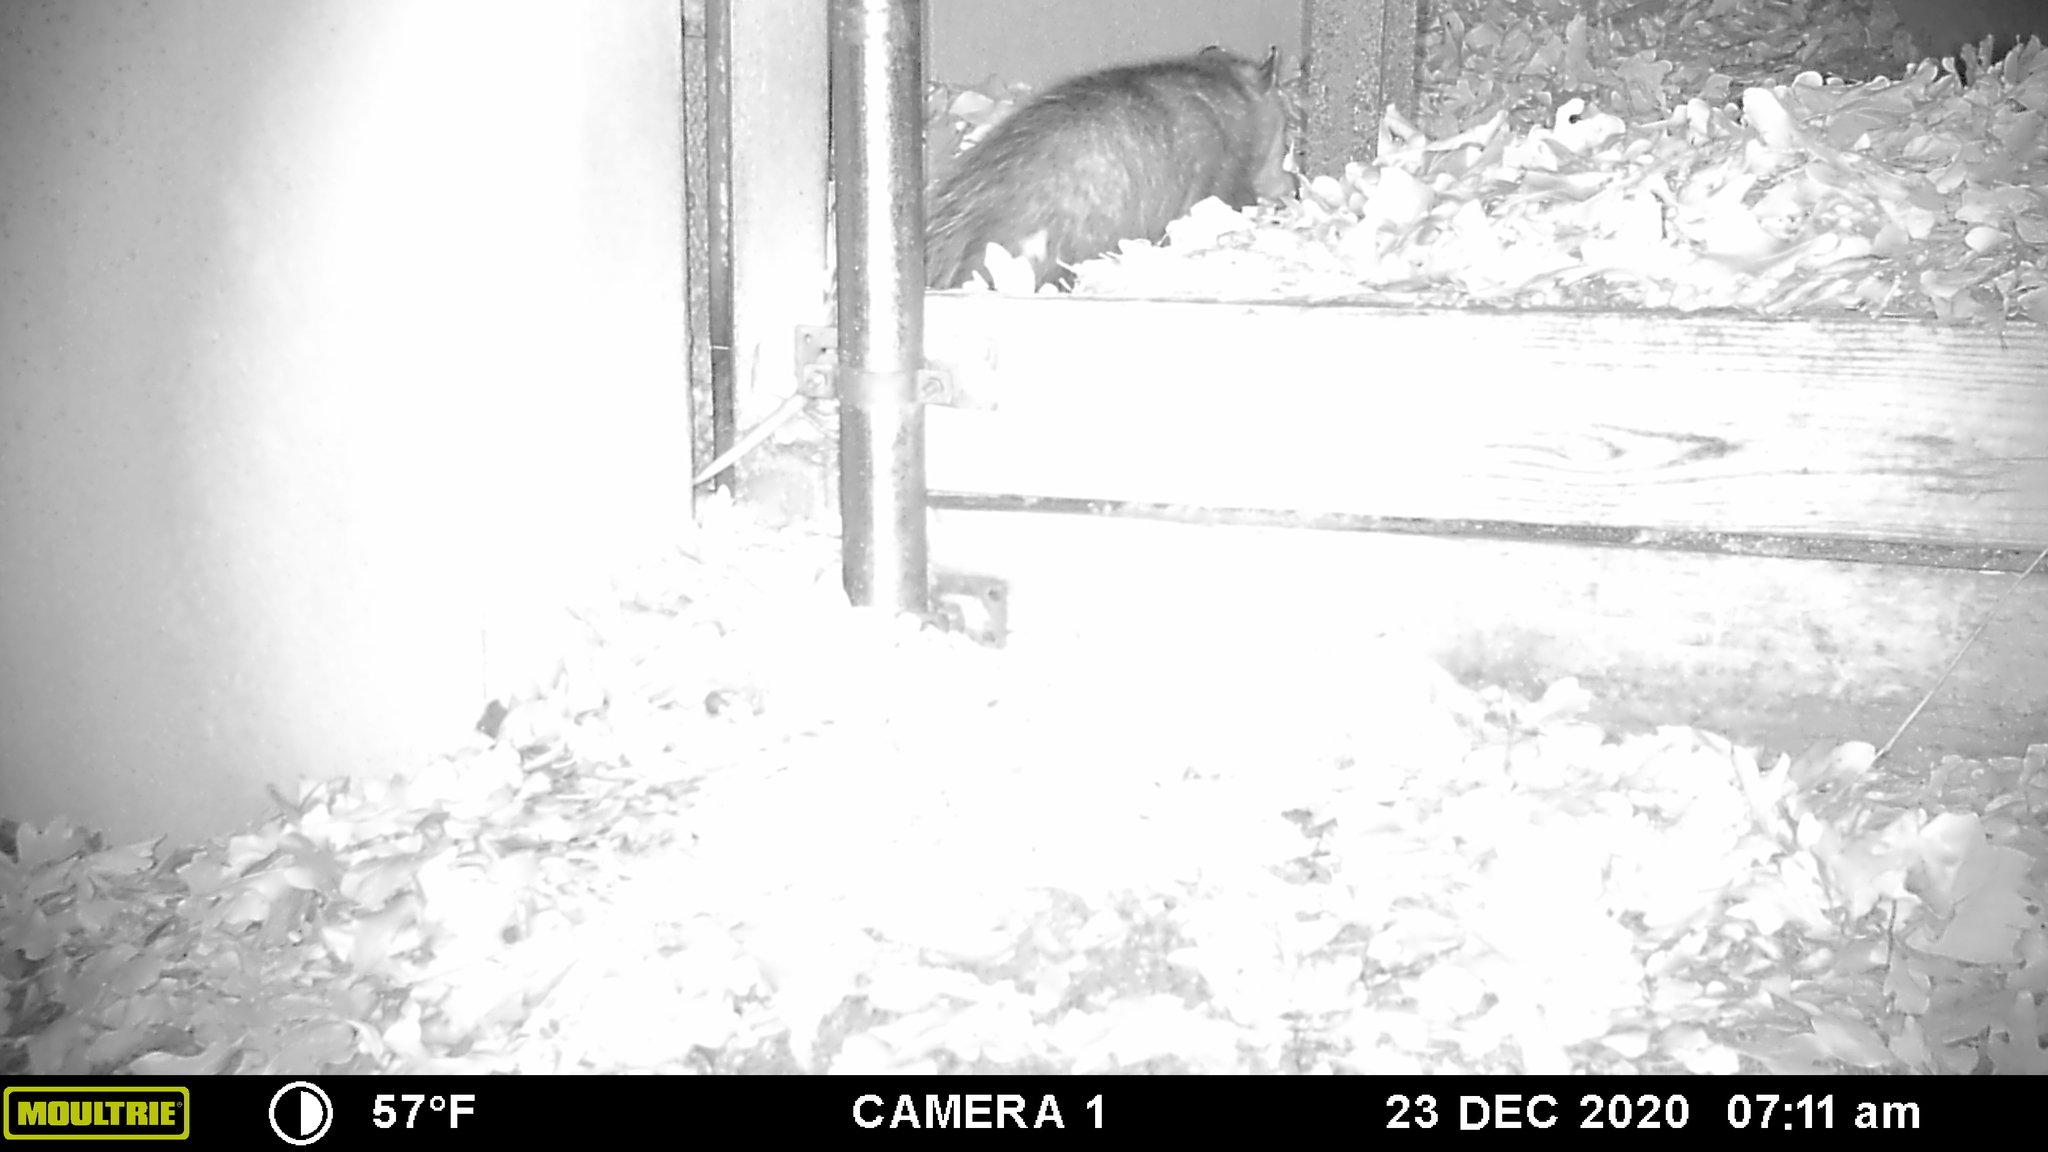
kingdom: Animalia
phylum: Chordata
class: Mammalia
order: Didelphimorphia
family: Didelphidae
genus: Didelphis
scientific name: Didelphis virginiana
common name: Virginia opossum
